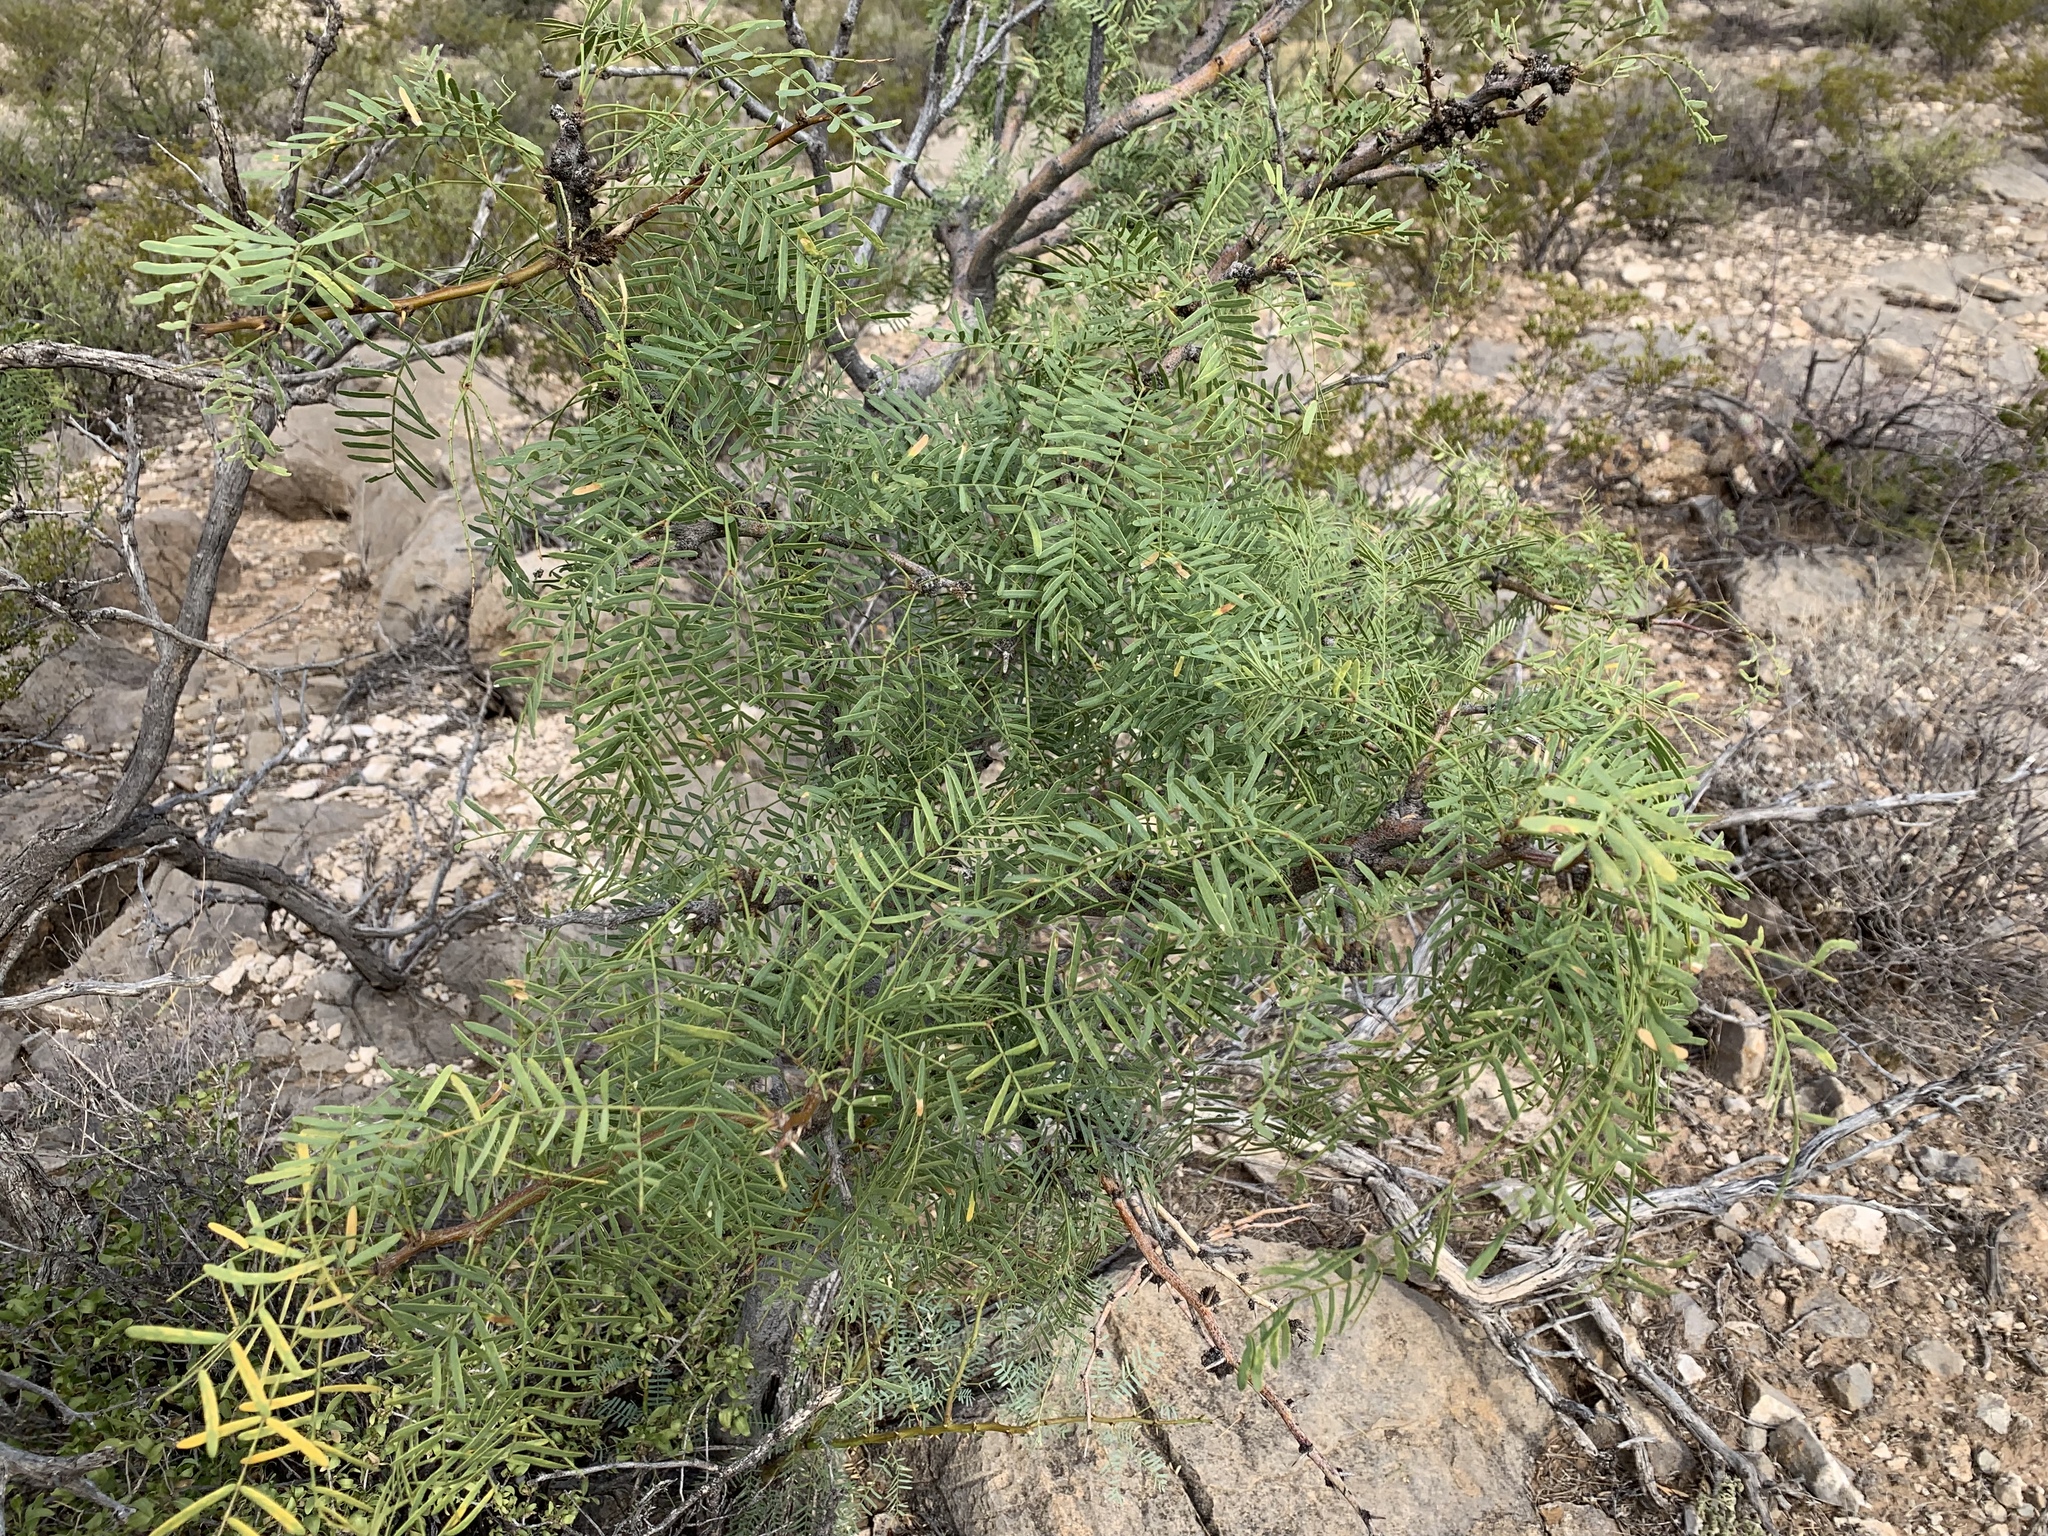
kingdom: Plantae
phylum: Tracheophyta
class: Magnoliopsida
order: Fabales
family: Fabaceae
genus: Prosopis
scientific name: Prosopis glandulosa
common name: Honey mesquite
